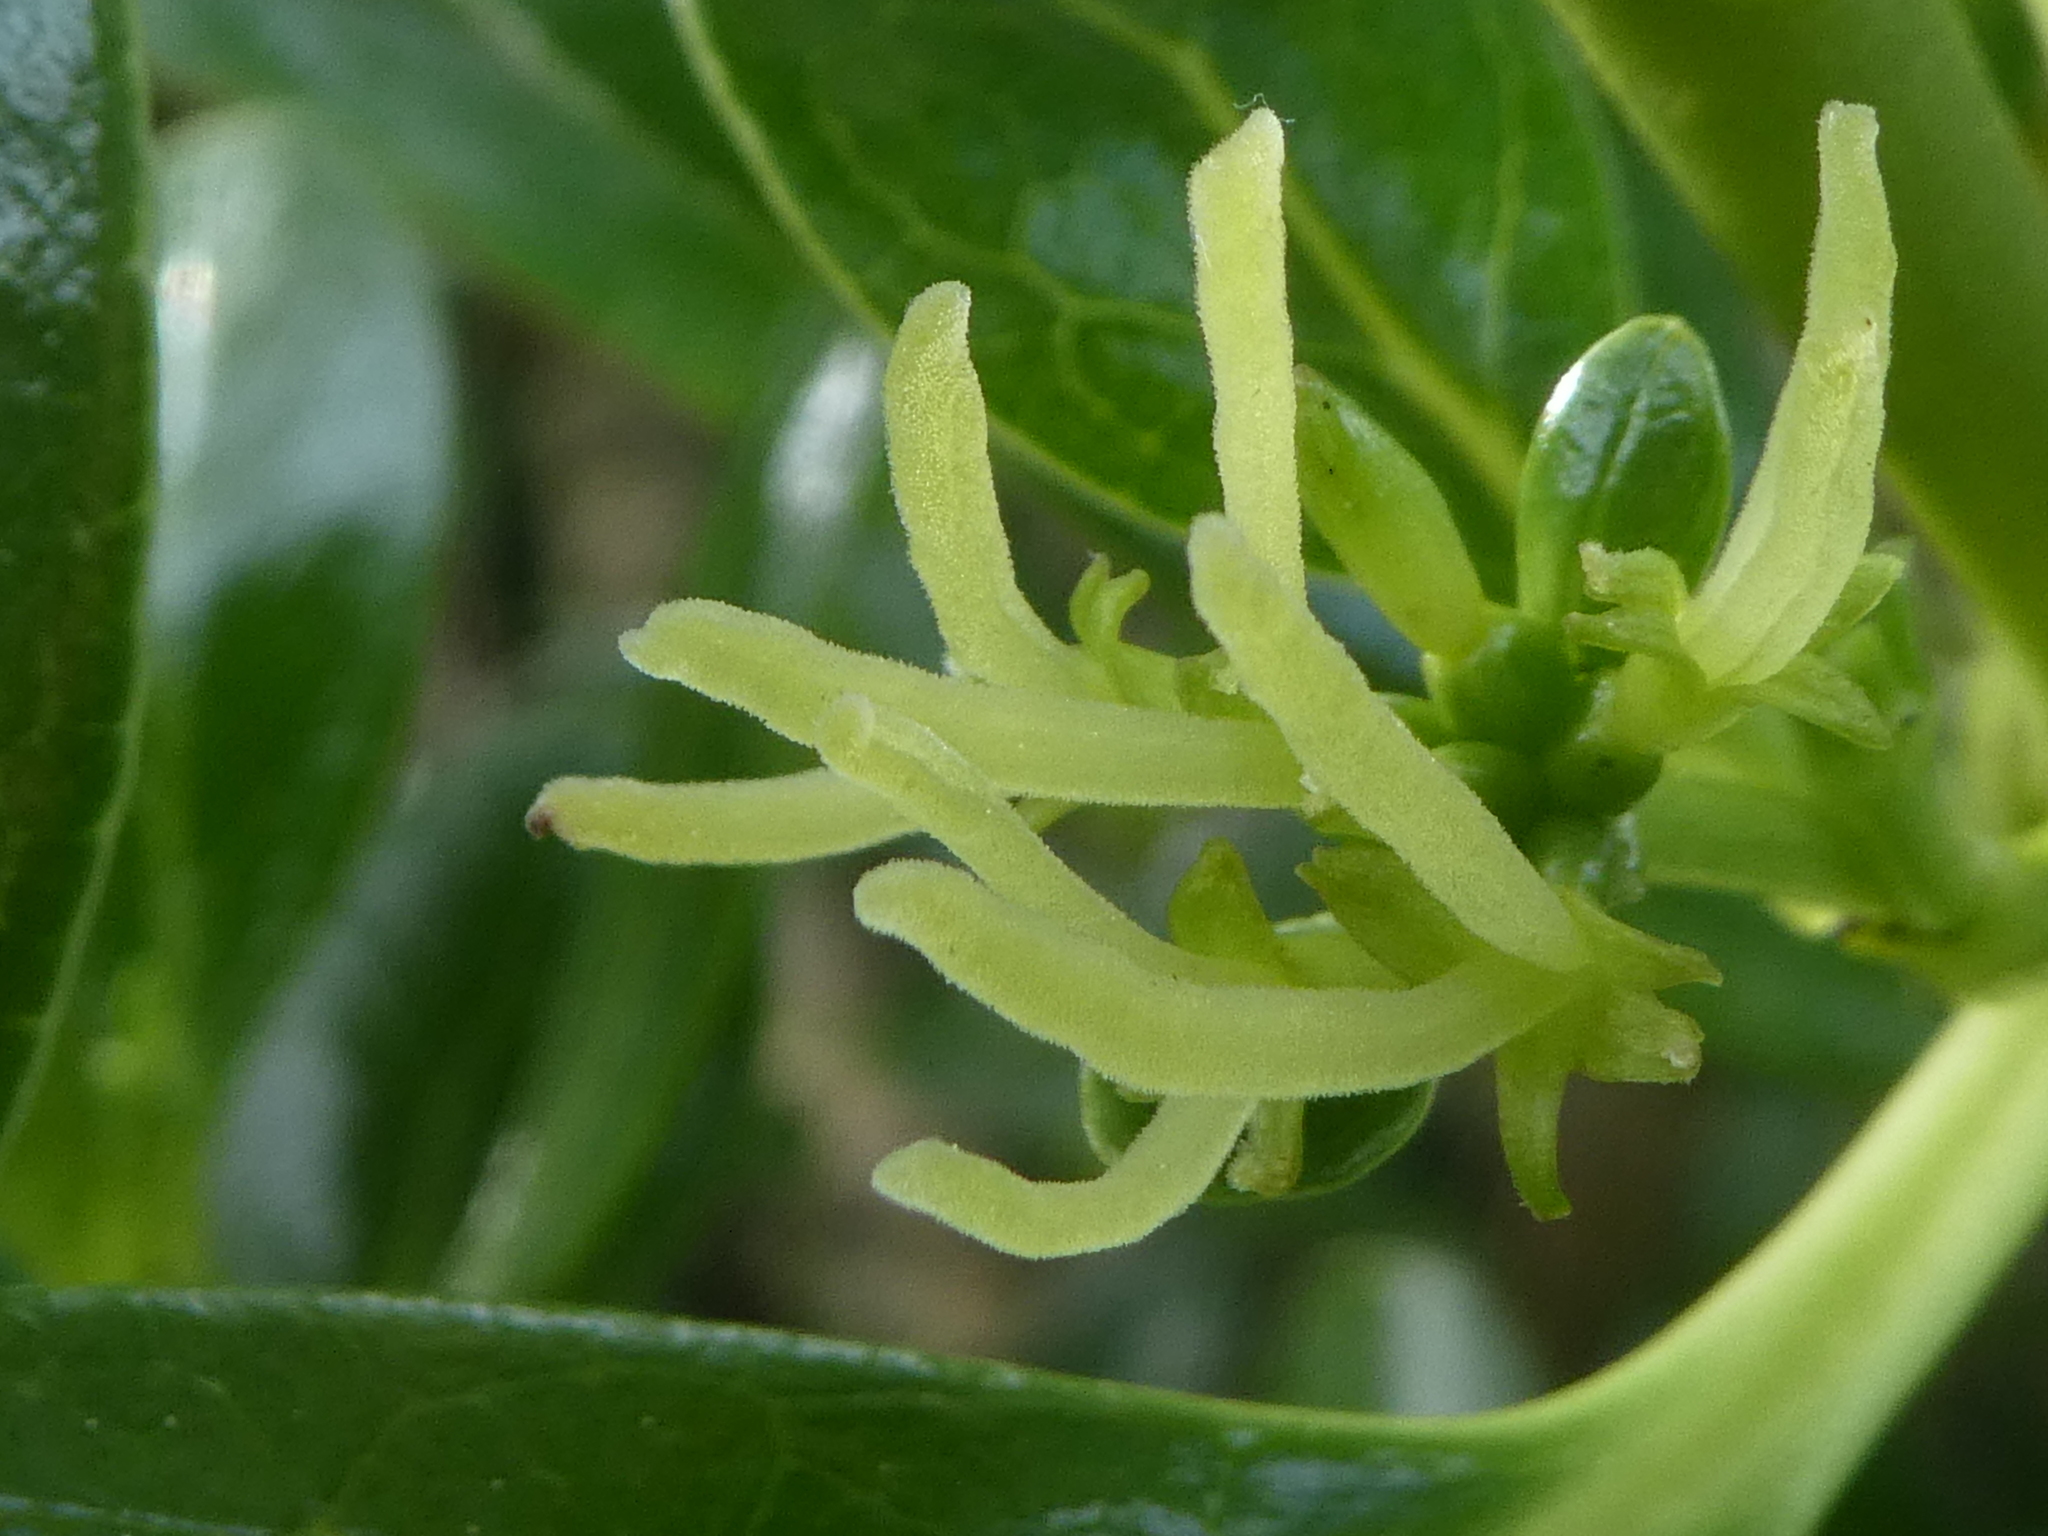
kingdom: Plantae
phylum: Tracheophyta
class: Magnoliopsida
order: Gentianales
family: Rubiaceae
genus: Coprosma
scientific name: Coprosma repens
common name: Tree bedstraw
